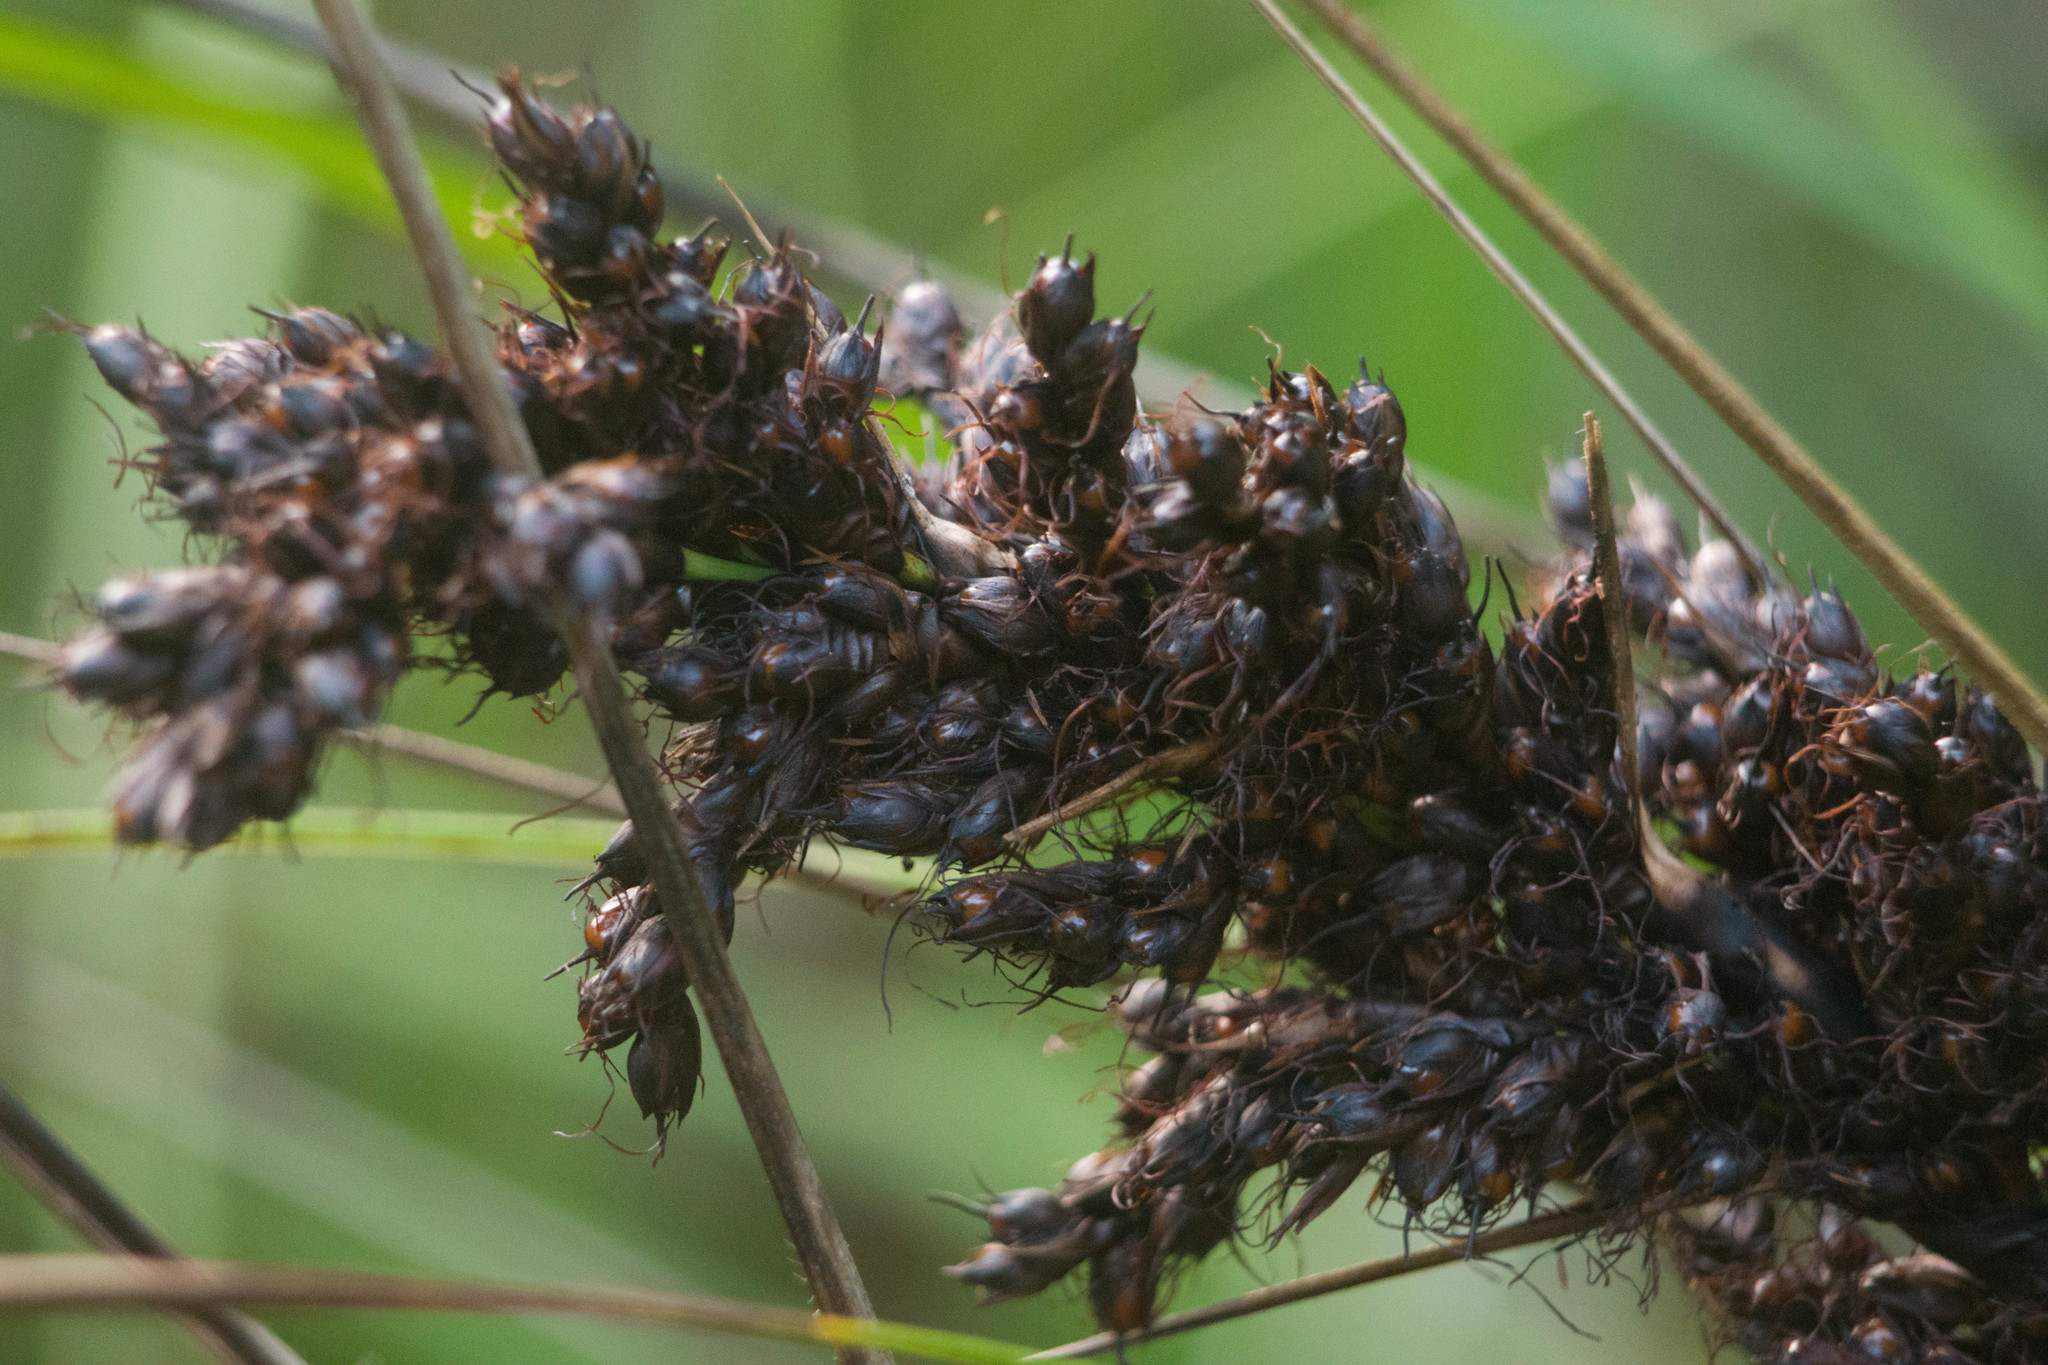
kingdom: Plantae
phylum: Tracheophyta
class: Liliopsida
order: Poales
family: Cyperaceae
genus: Gahnia
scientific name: Gahnia beecheyi
